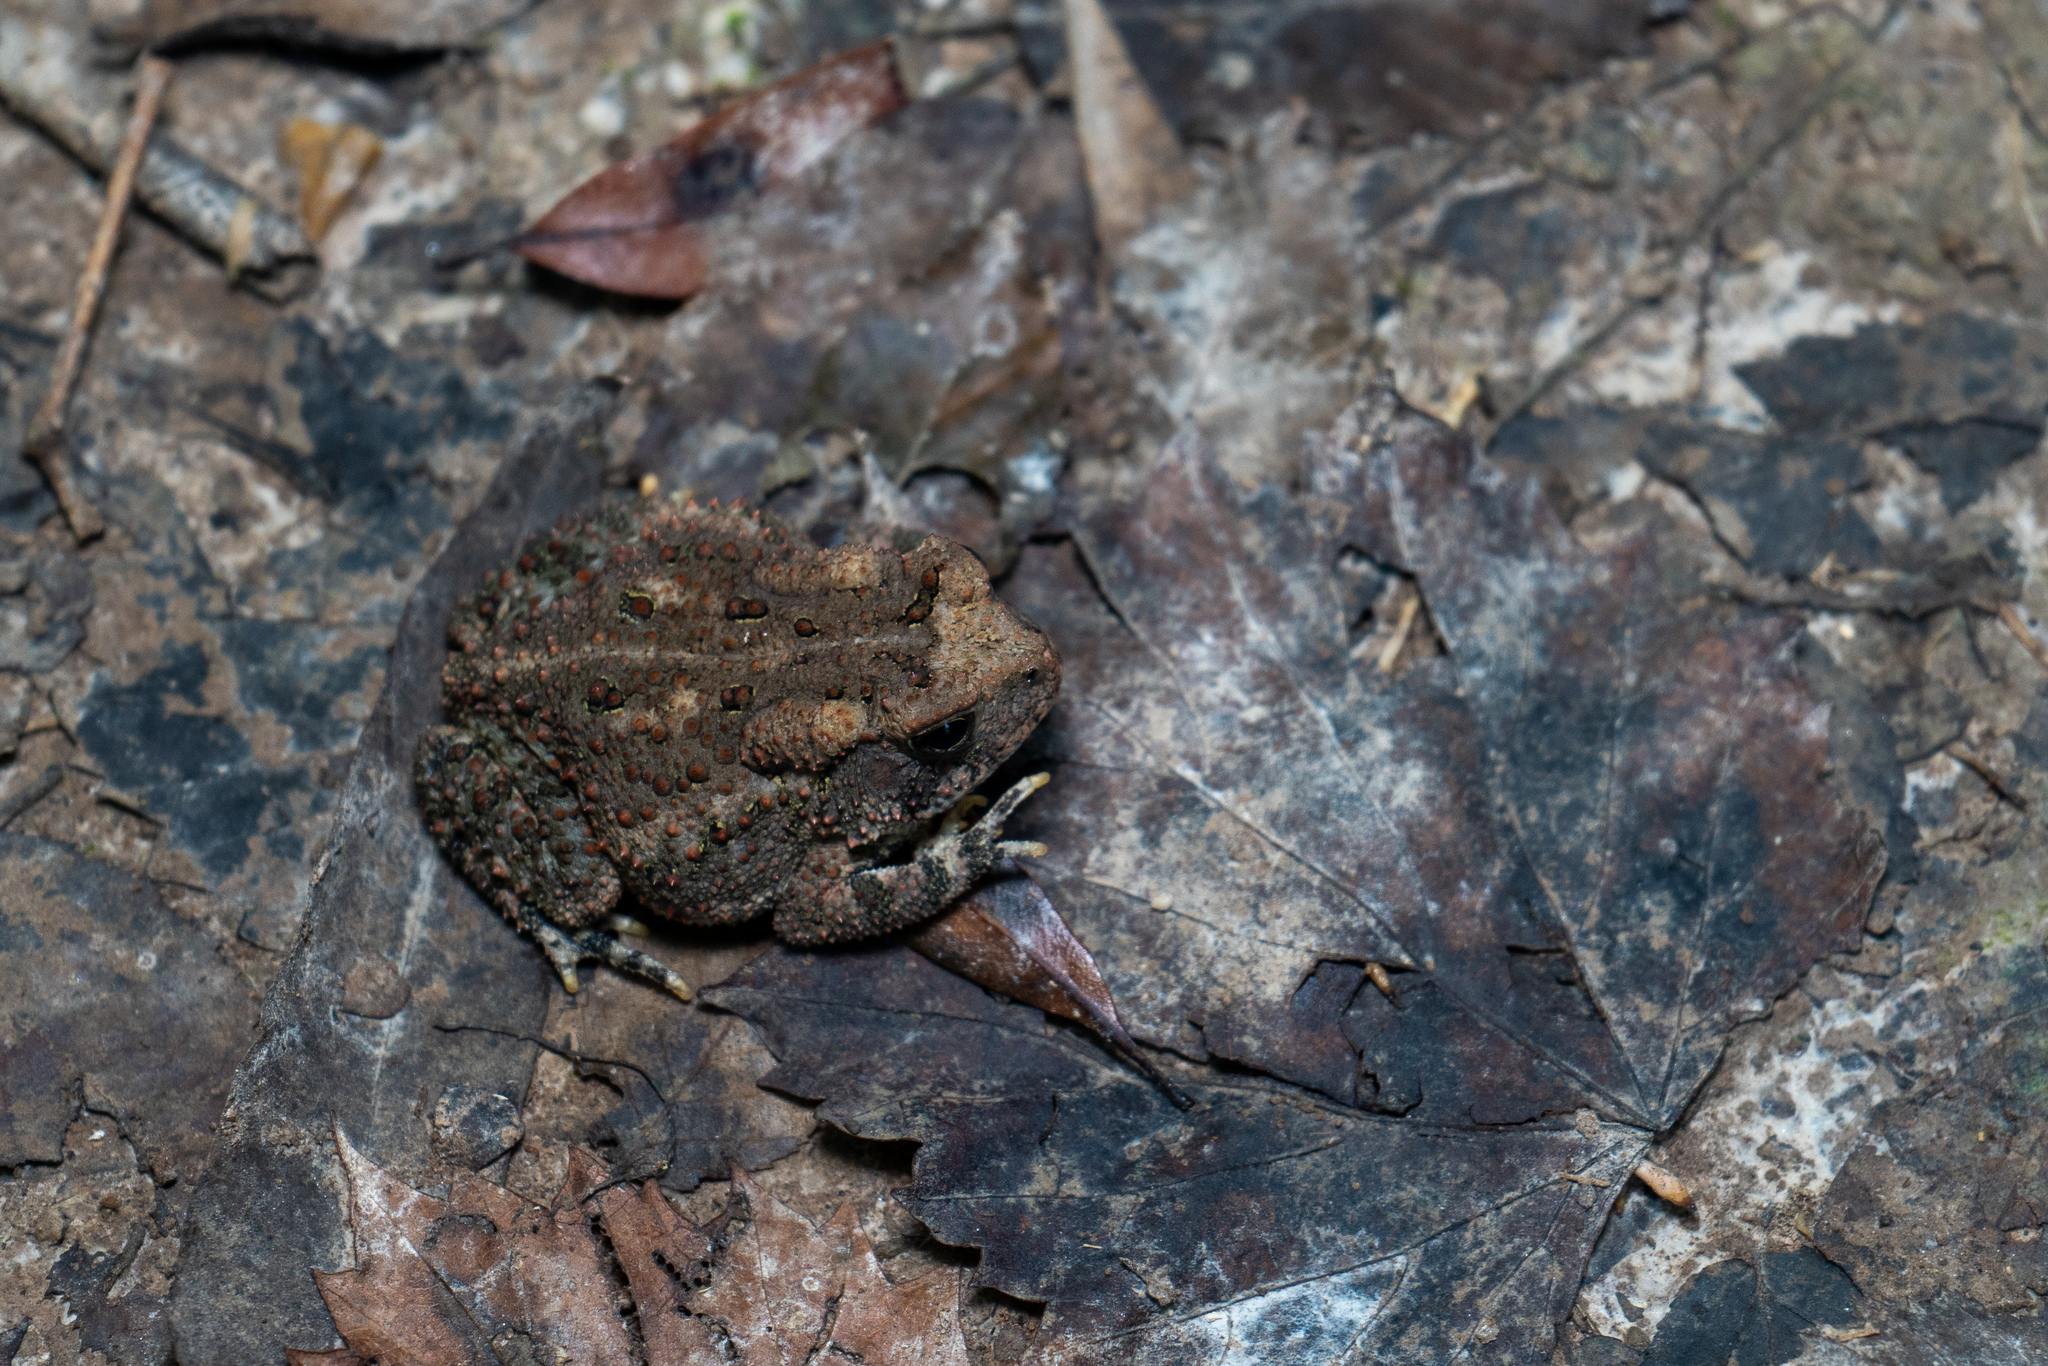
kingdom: Animalia
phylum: Chordata
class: Amphibia
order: Anura
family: Bufonidae
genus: Anaxyrus
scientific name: Anaxyrus fowleri
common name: Fowler's toad
